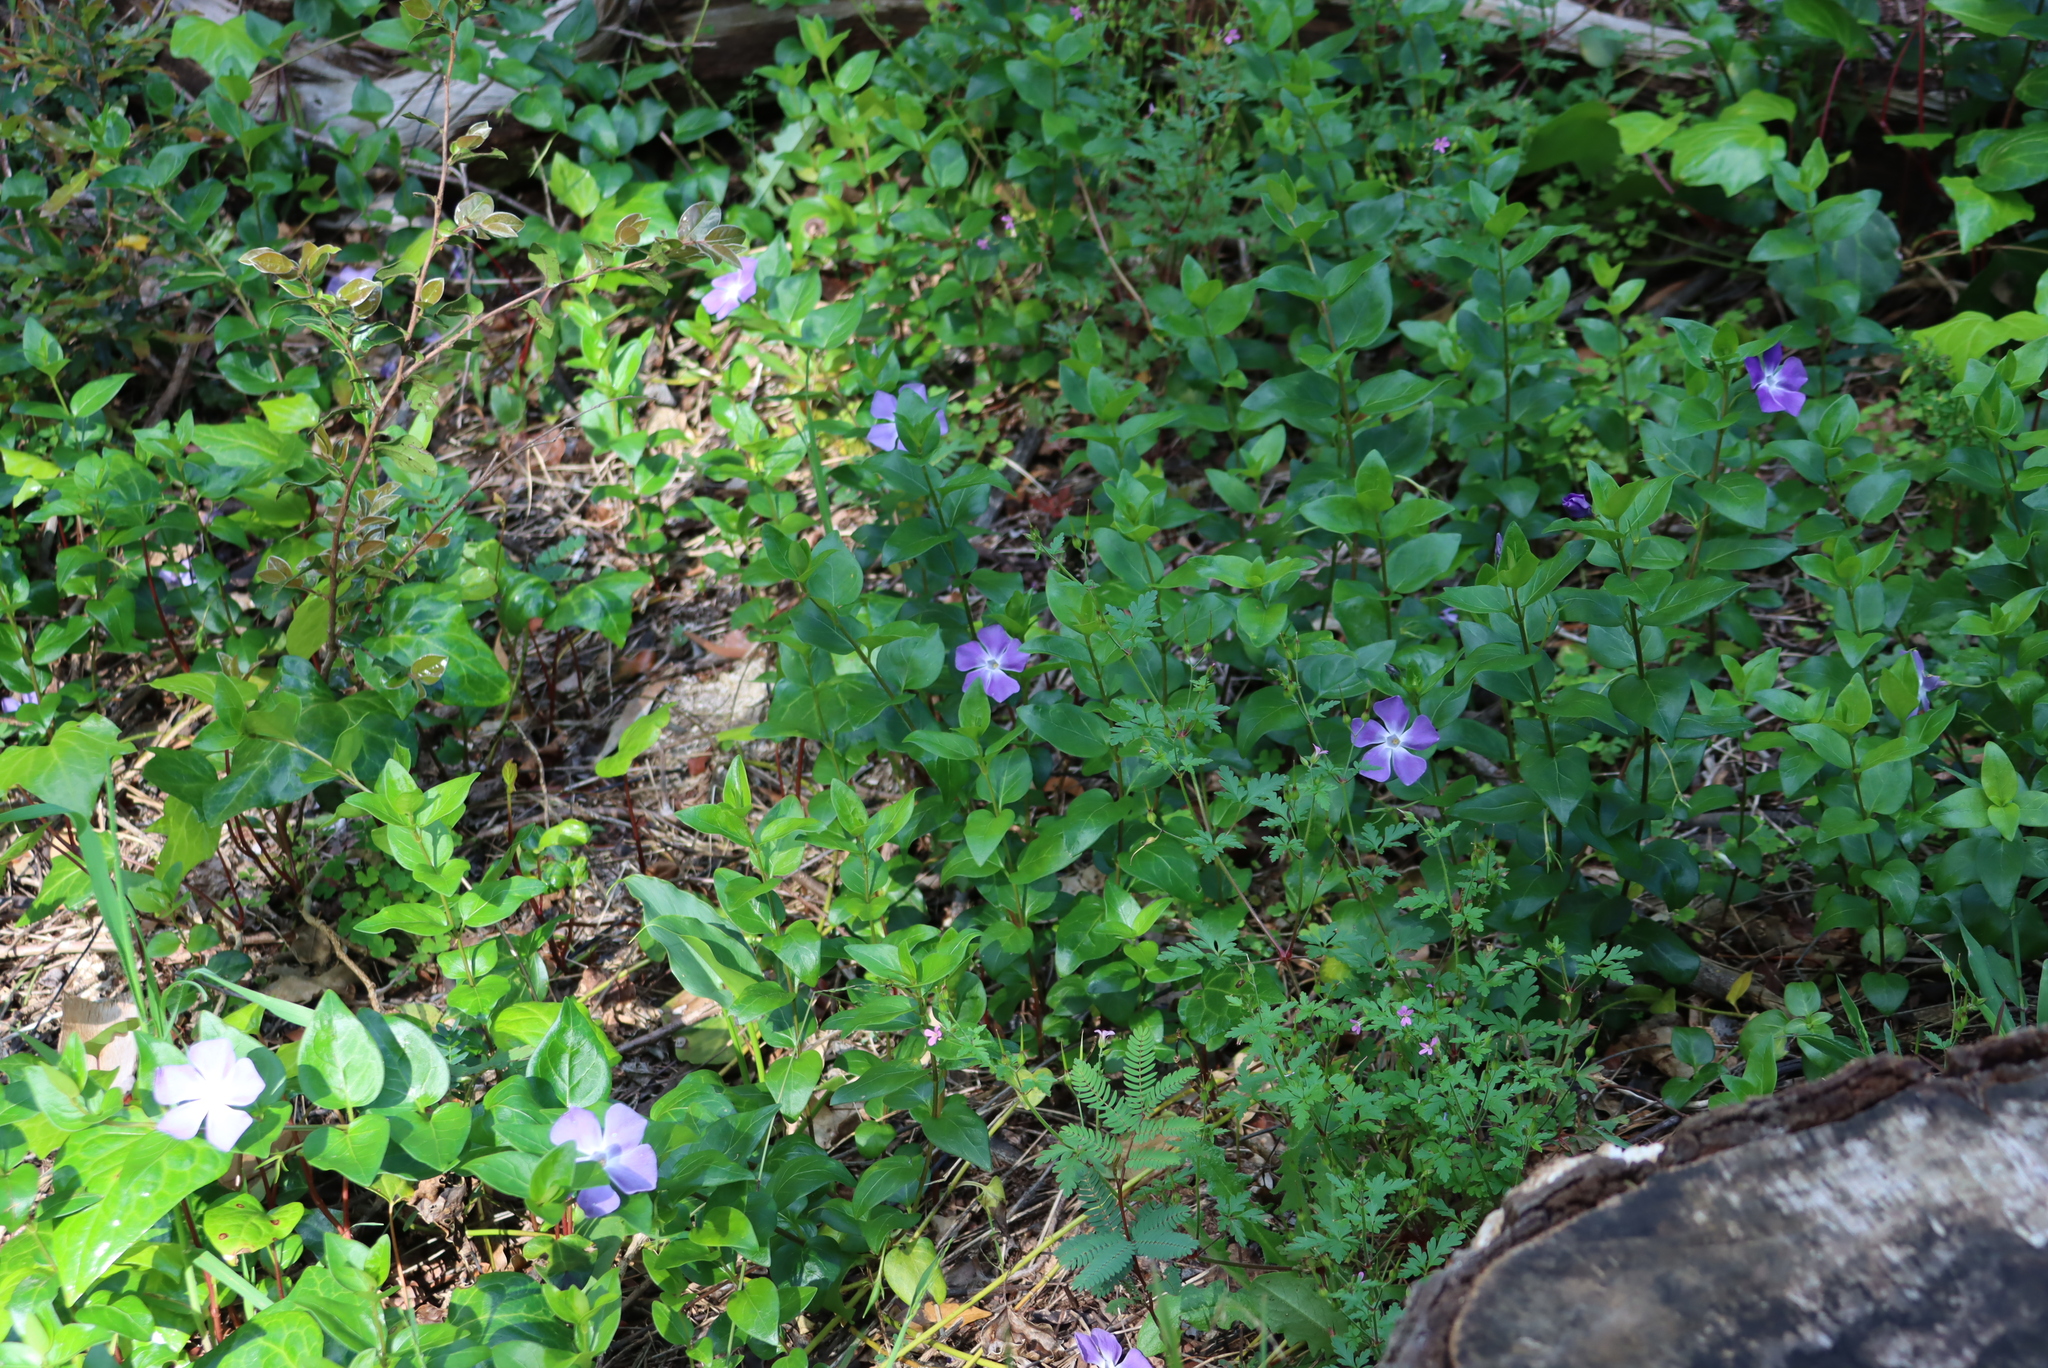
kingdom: Plantae
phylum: Tracheophyta
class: Magnoliopsida
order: Gentianales
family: Apocynaceae
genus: Vinca
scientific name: Vinca major
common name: Greater periwinkle
